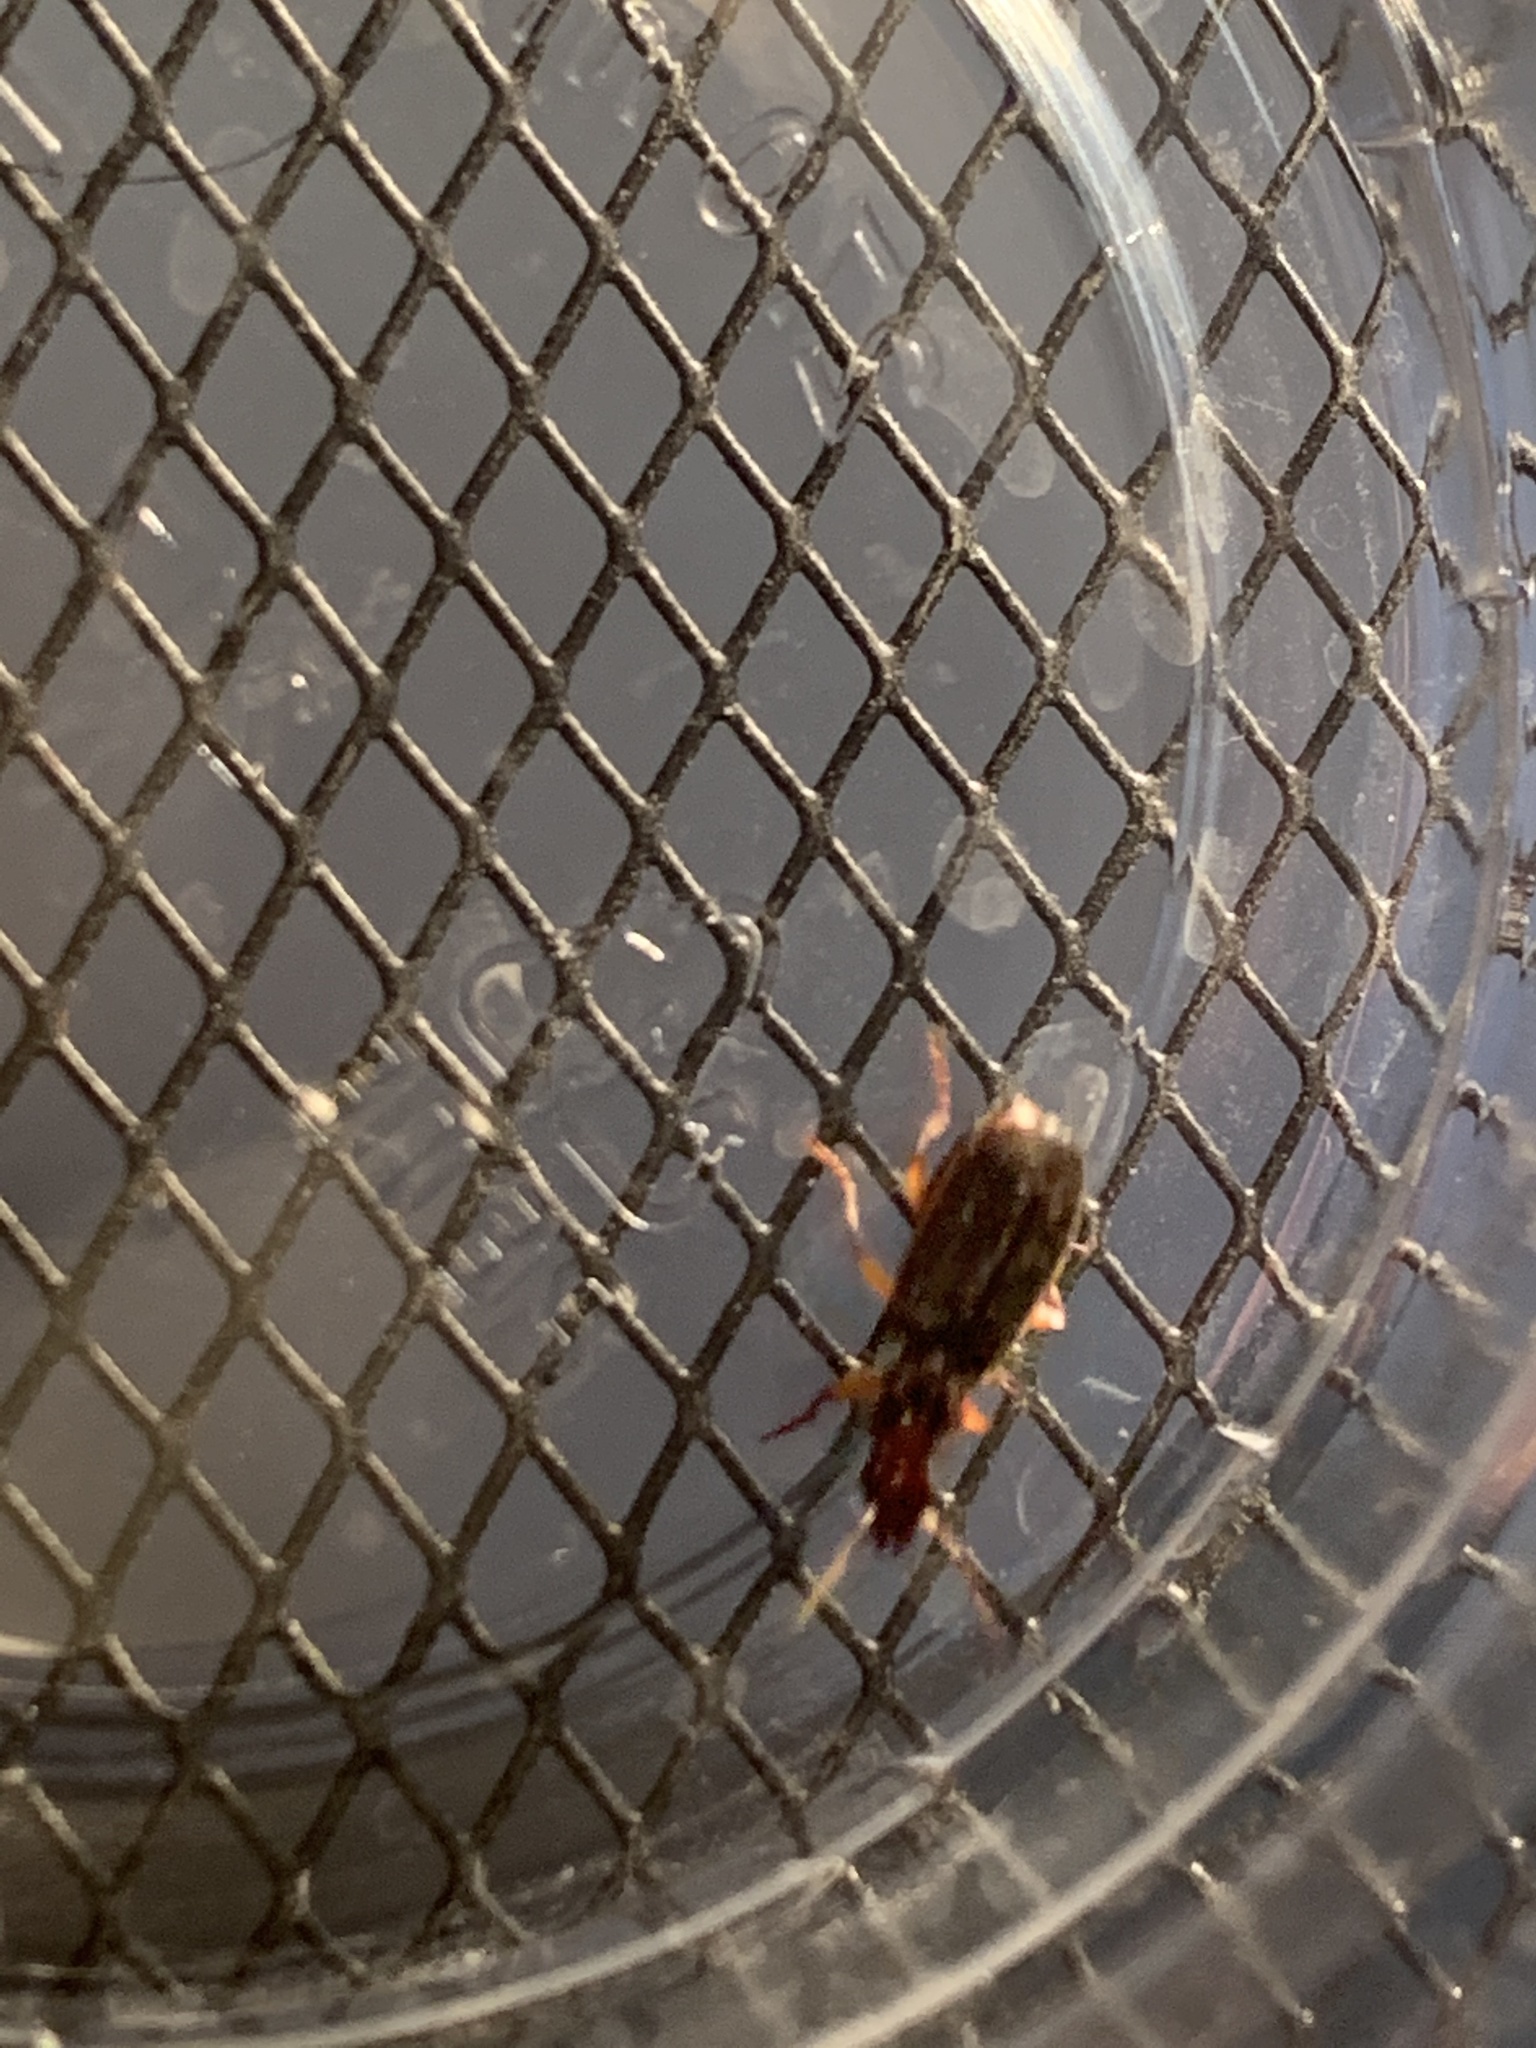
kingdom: Animalia
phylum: Arthropoda
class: Insecta
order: Coleoptera
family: Carabidae
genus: Cymindis
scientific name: Cymindis
